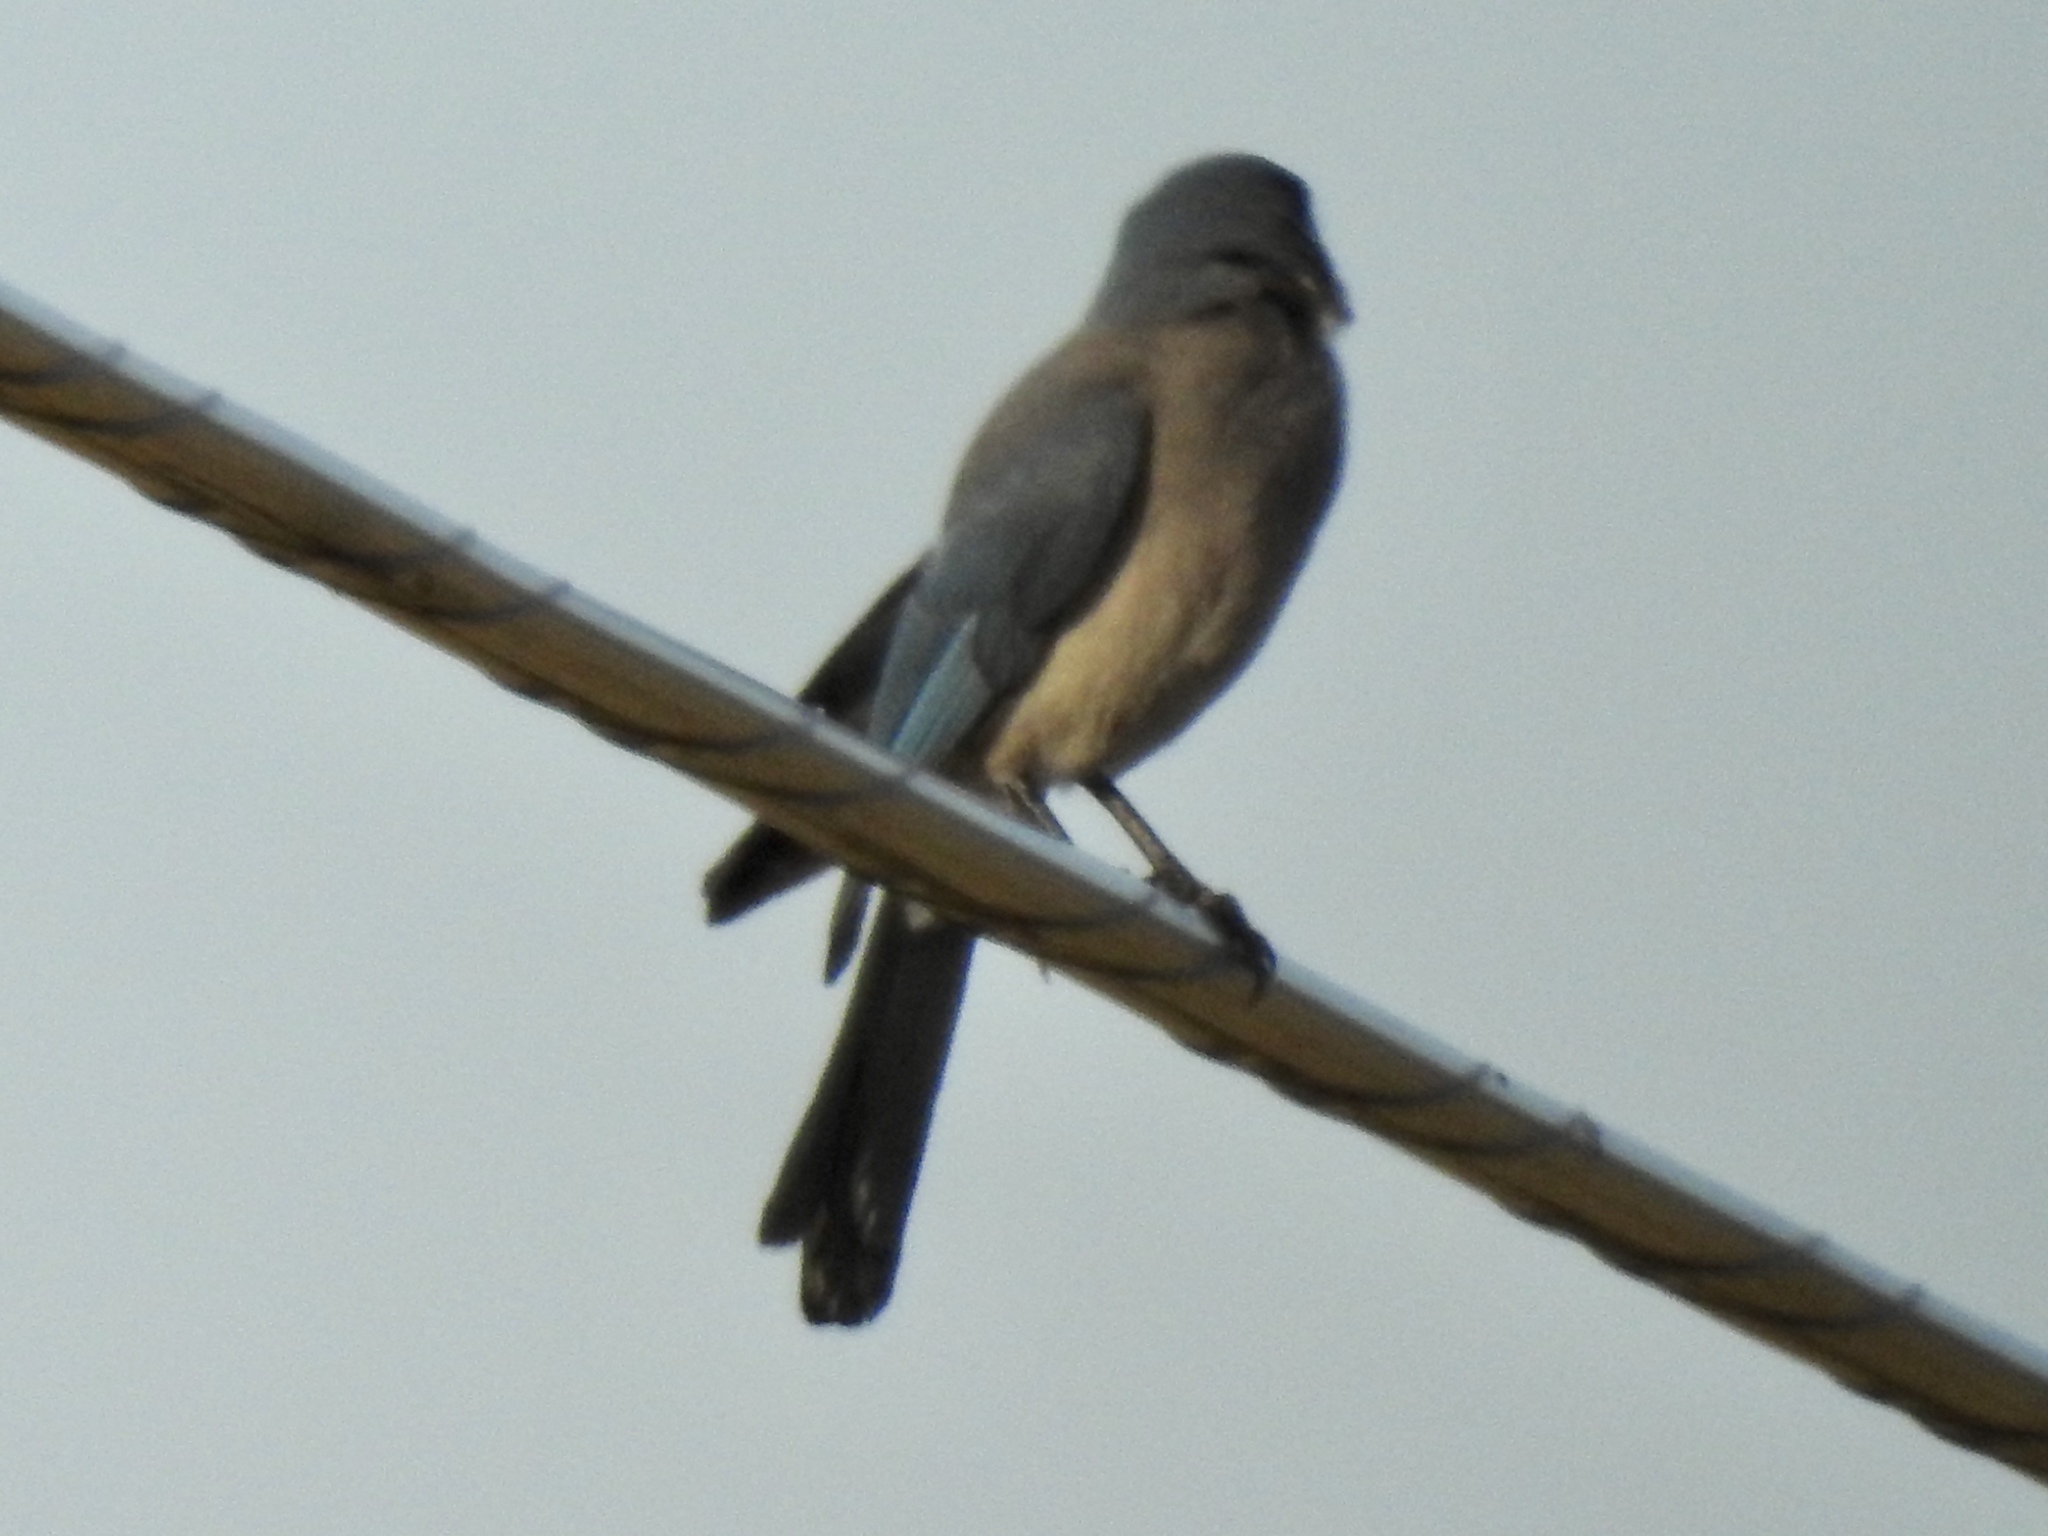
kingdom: Animalia
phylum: Chordata
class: Aves
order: Passeriformes
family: Corvidae
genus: Aphelocoma
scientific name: Aphelocoma wollweberi
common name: Mexican jay
